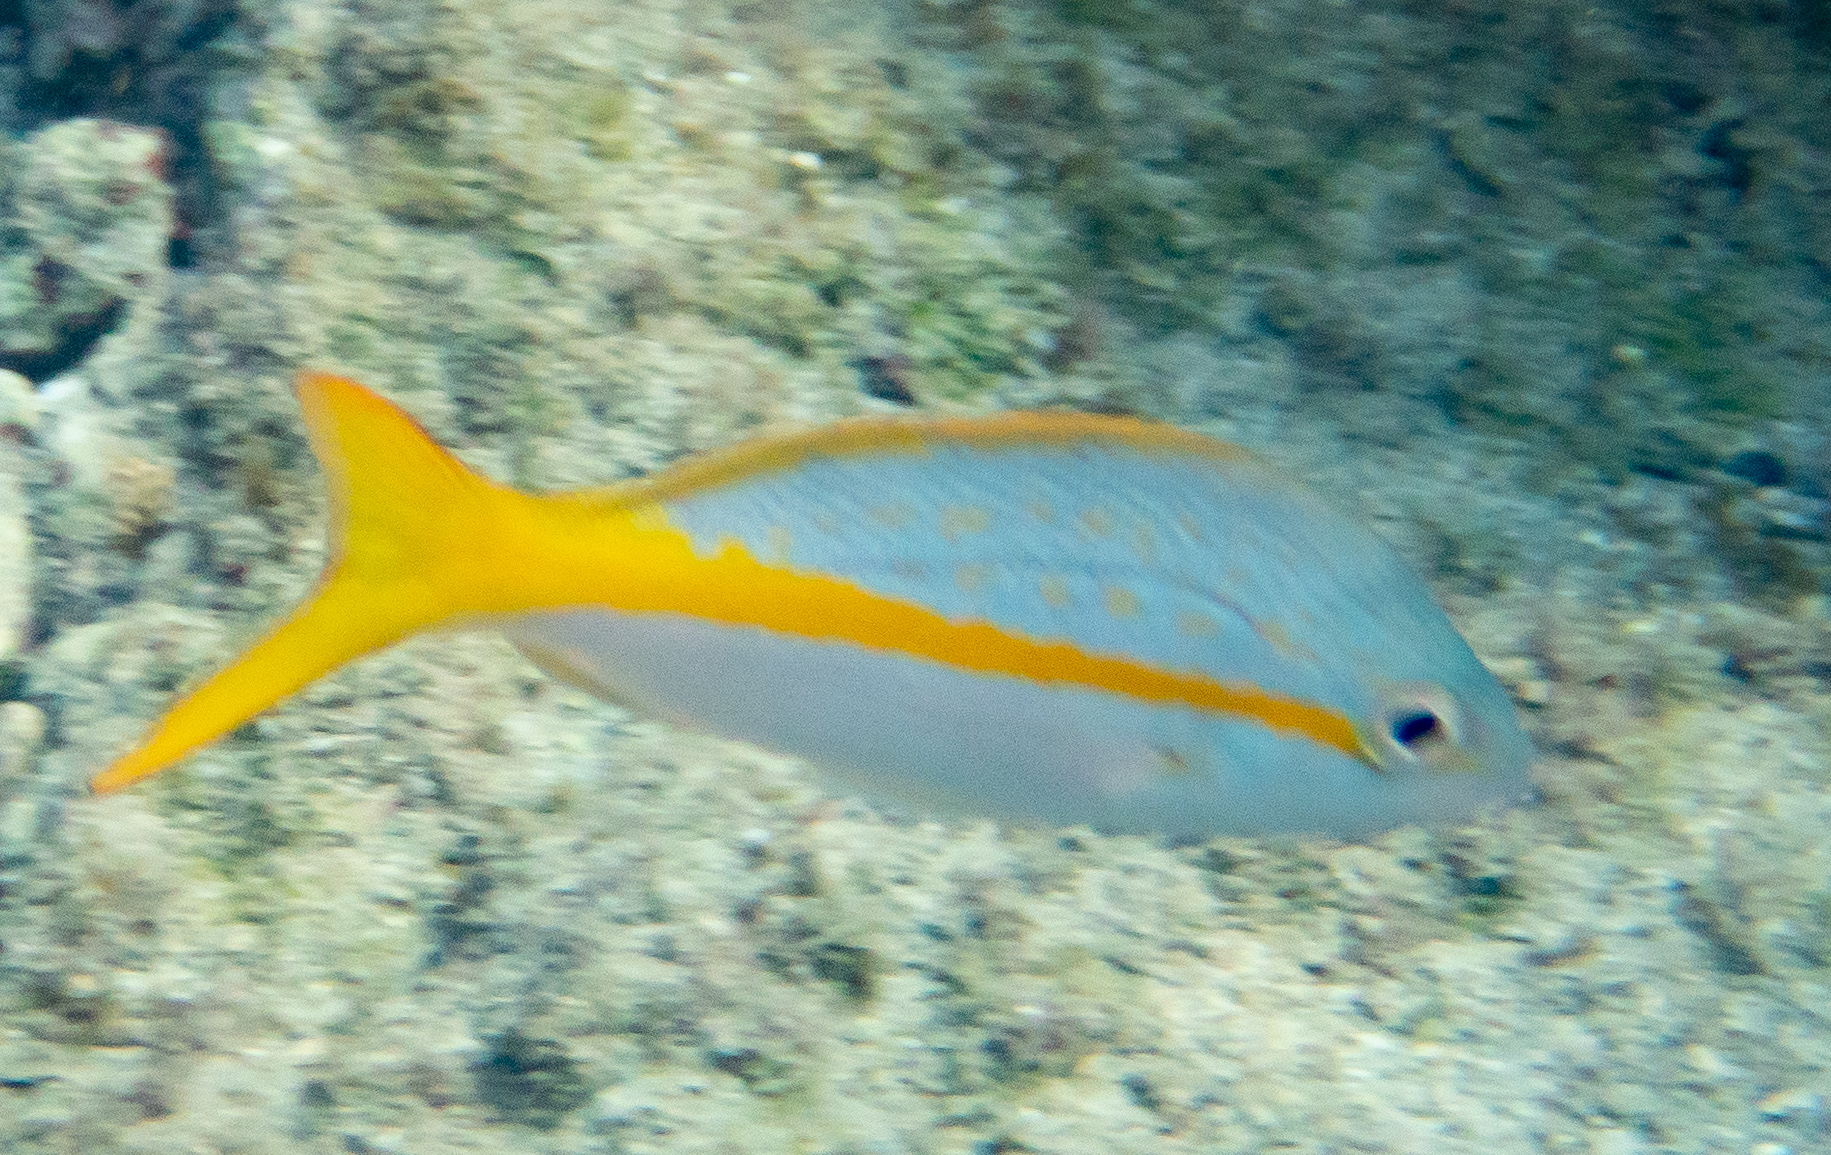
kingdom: Animalia
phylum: Chordata
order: Perciformes
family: Lutjanidae
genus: Ocyurus
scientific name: Ocyurus chrysurus
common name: Yellowtail snapper
